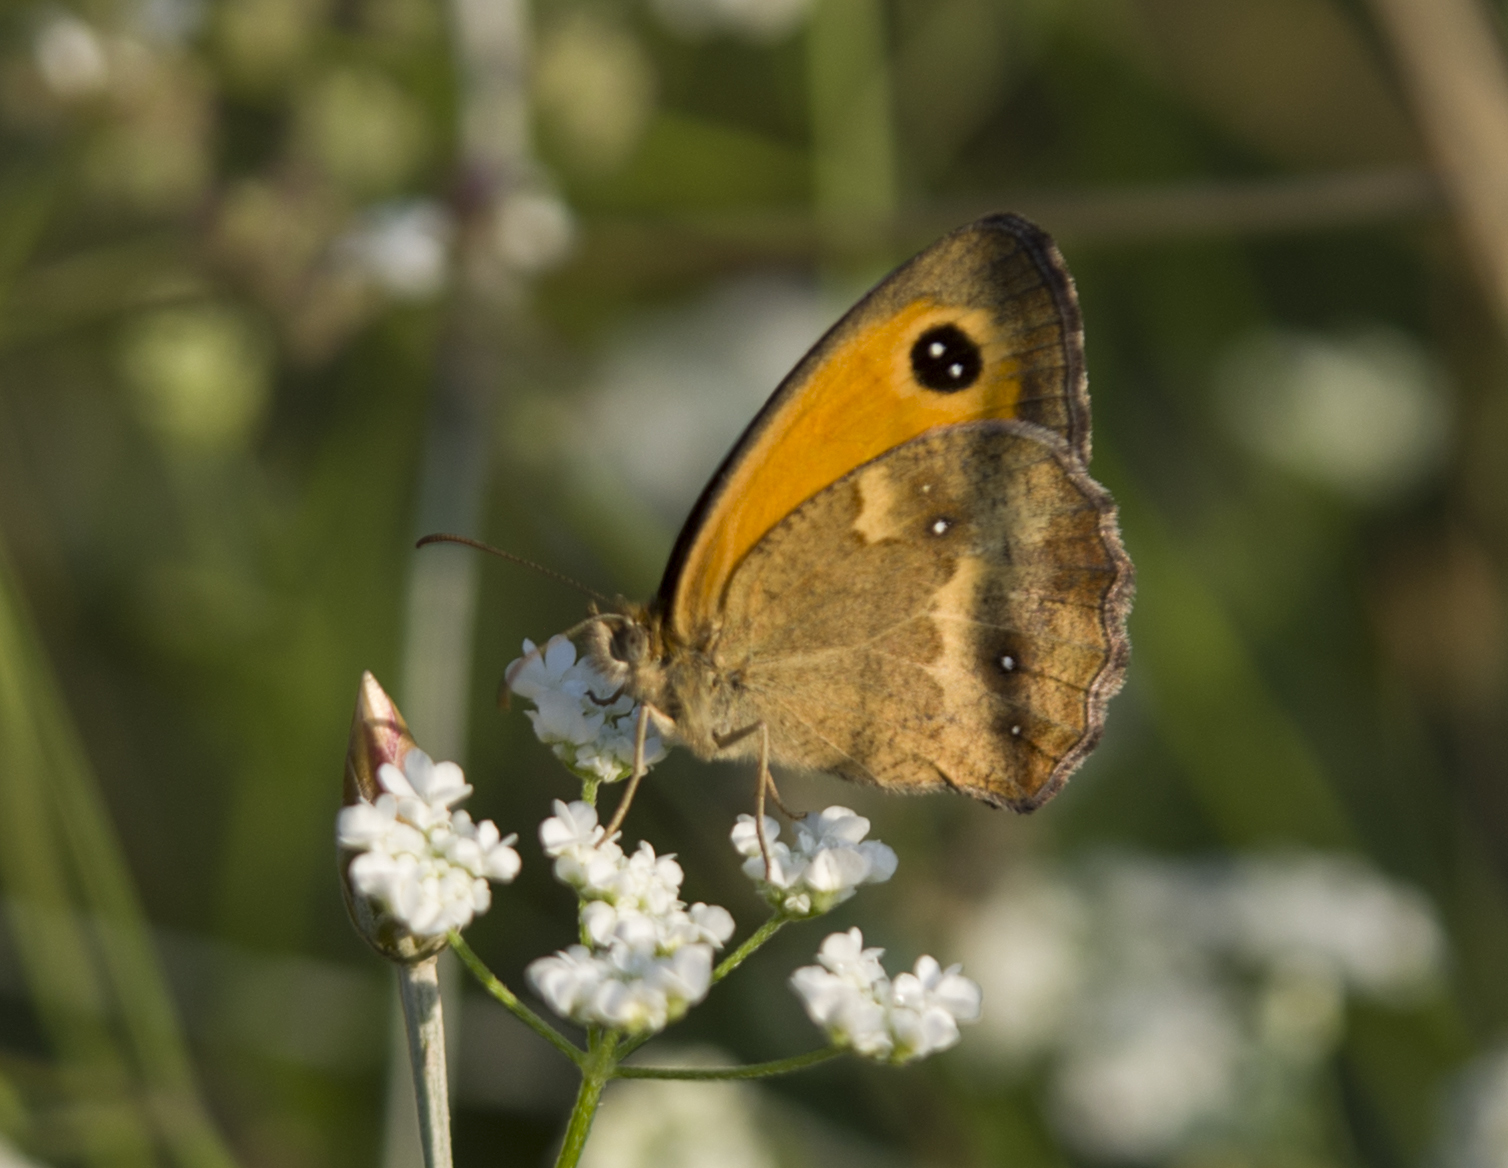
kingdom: Animalia
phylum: Arthropoda
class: Insecta
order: Lepidoptera
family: Nymphalidae
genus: Pyronia
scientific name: Pyronia tithonus
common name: Gatekeeper
